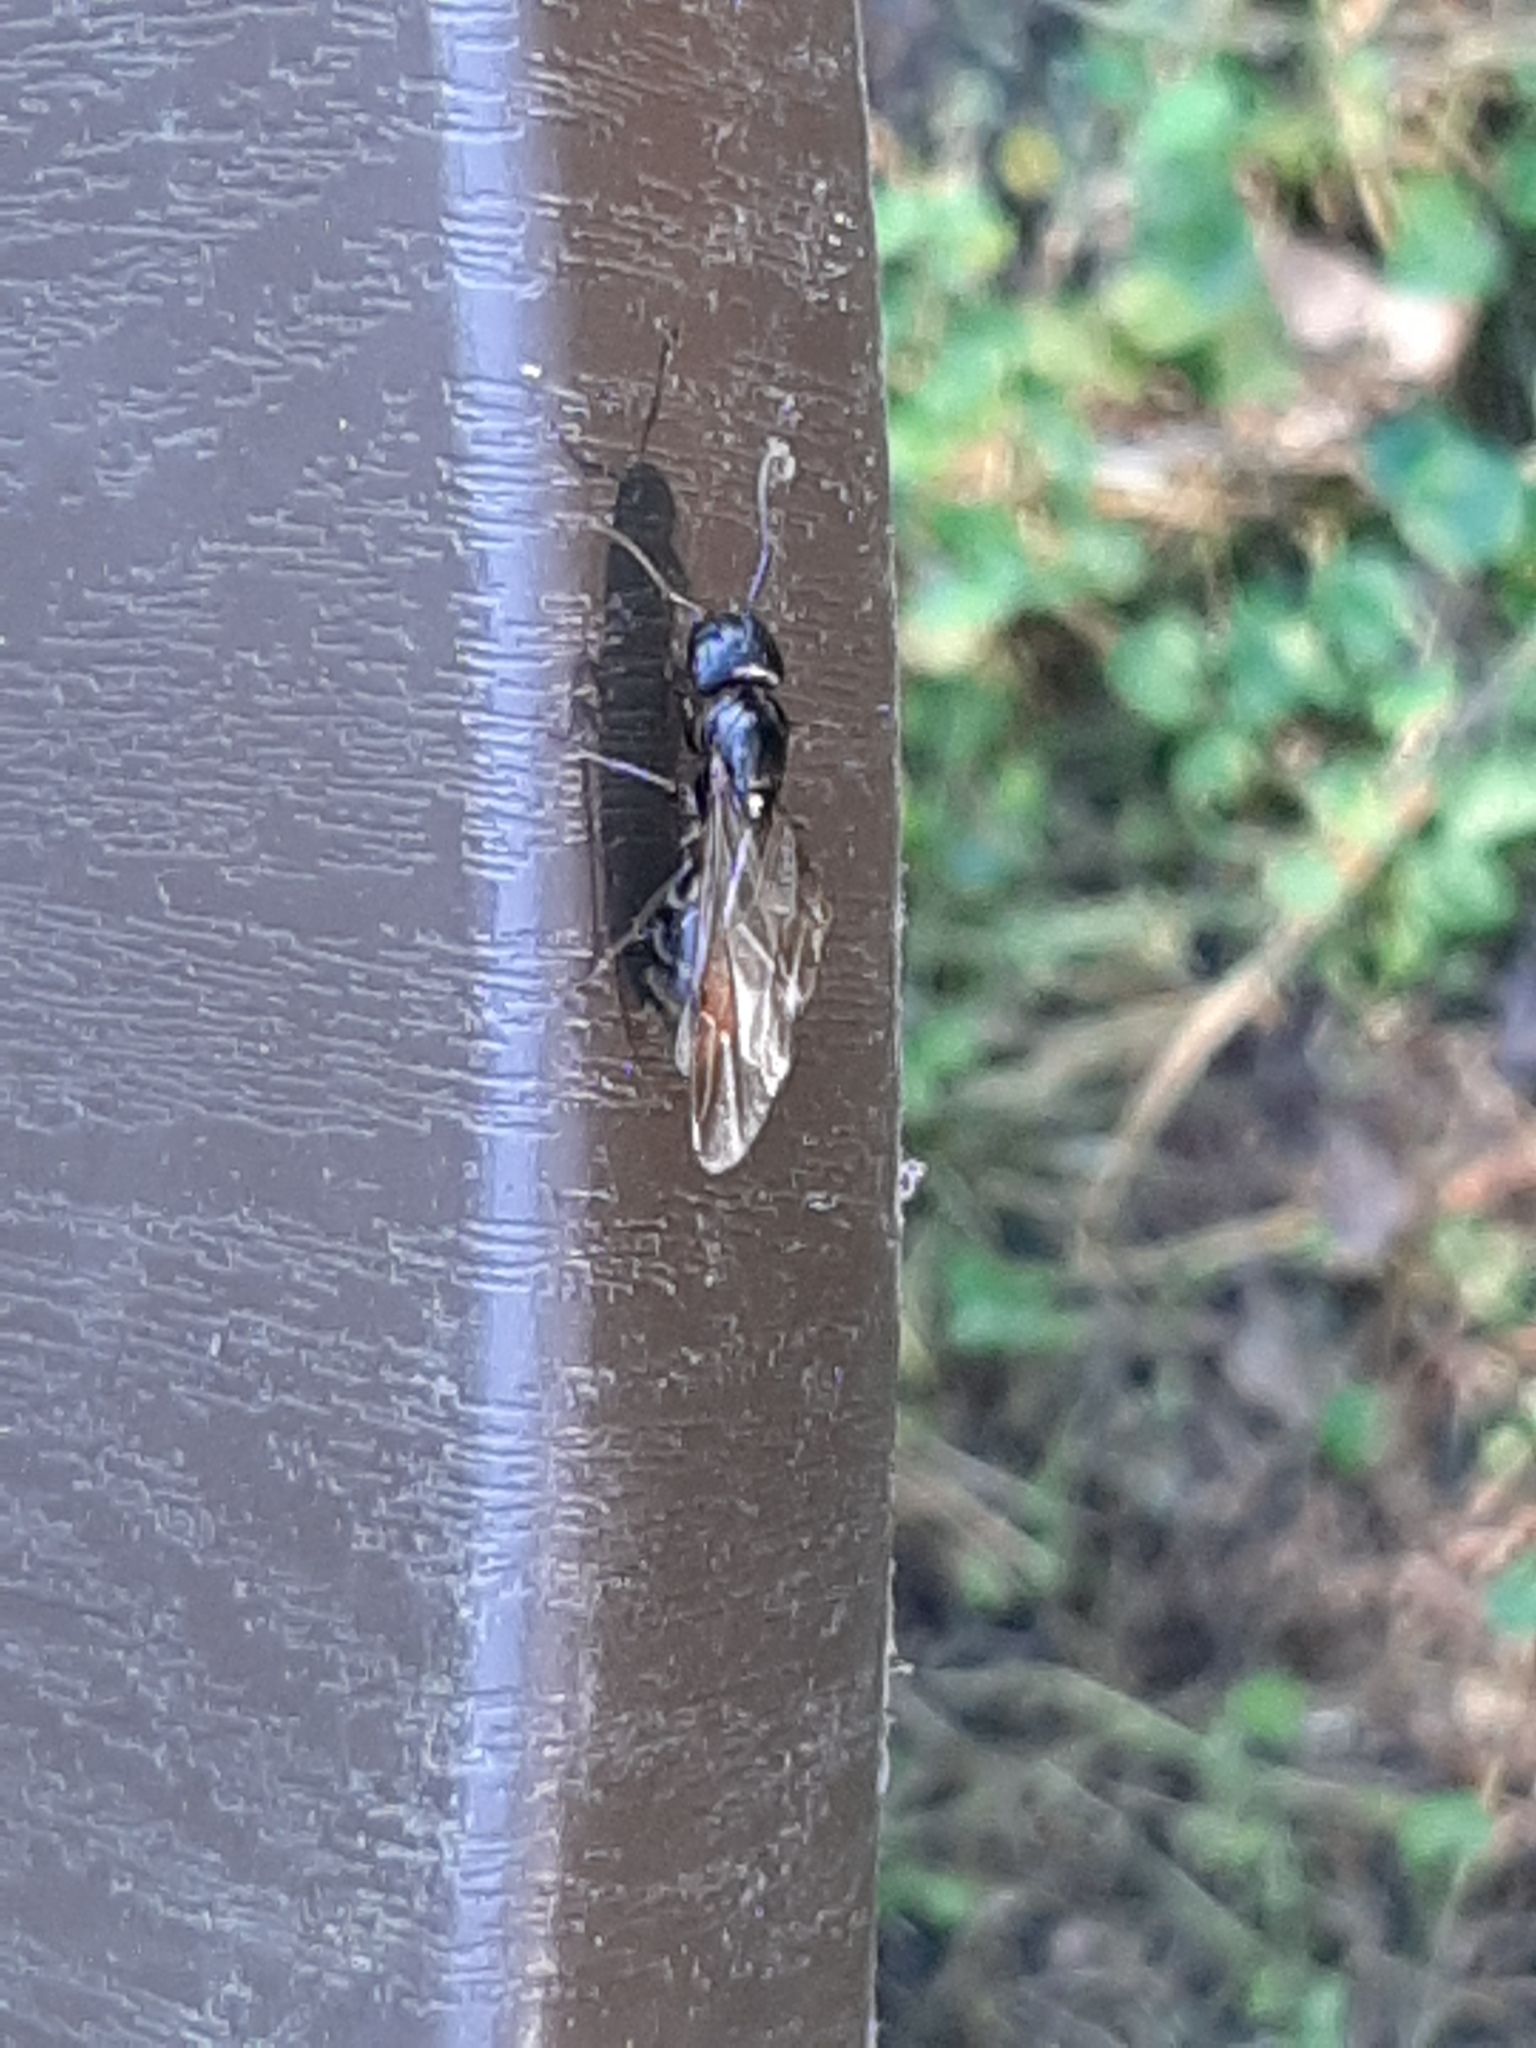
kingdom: Animalia
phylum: Arthropoda
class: Insecta
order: Hymenoptera
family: Formicidae
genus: Camponotus
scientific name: Camponotus pennsylvanicus
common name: Black carpenter ant
